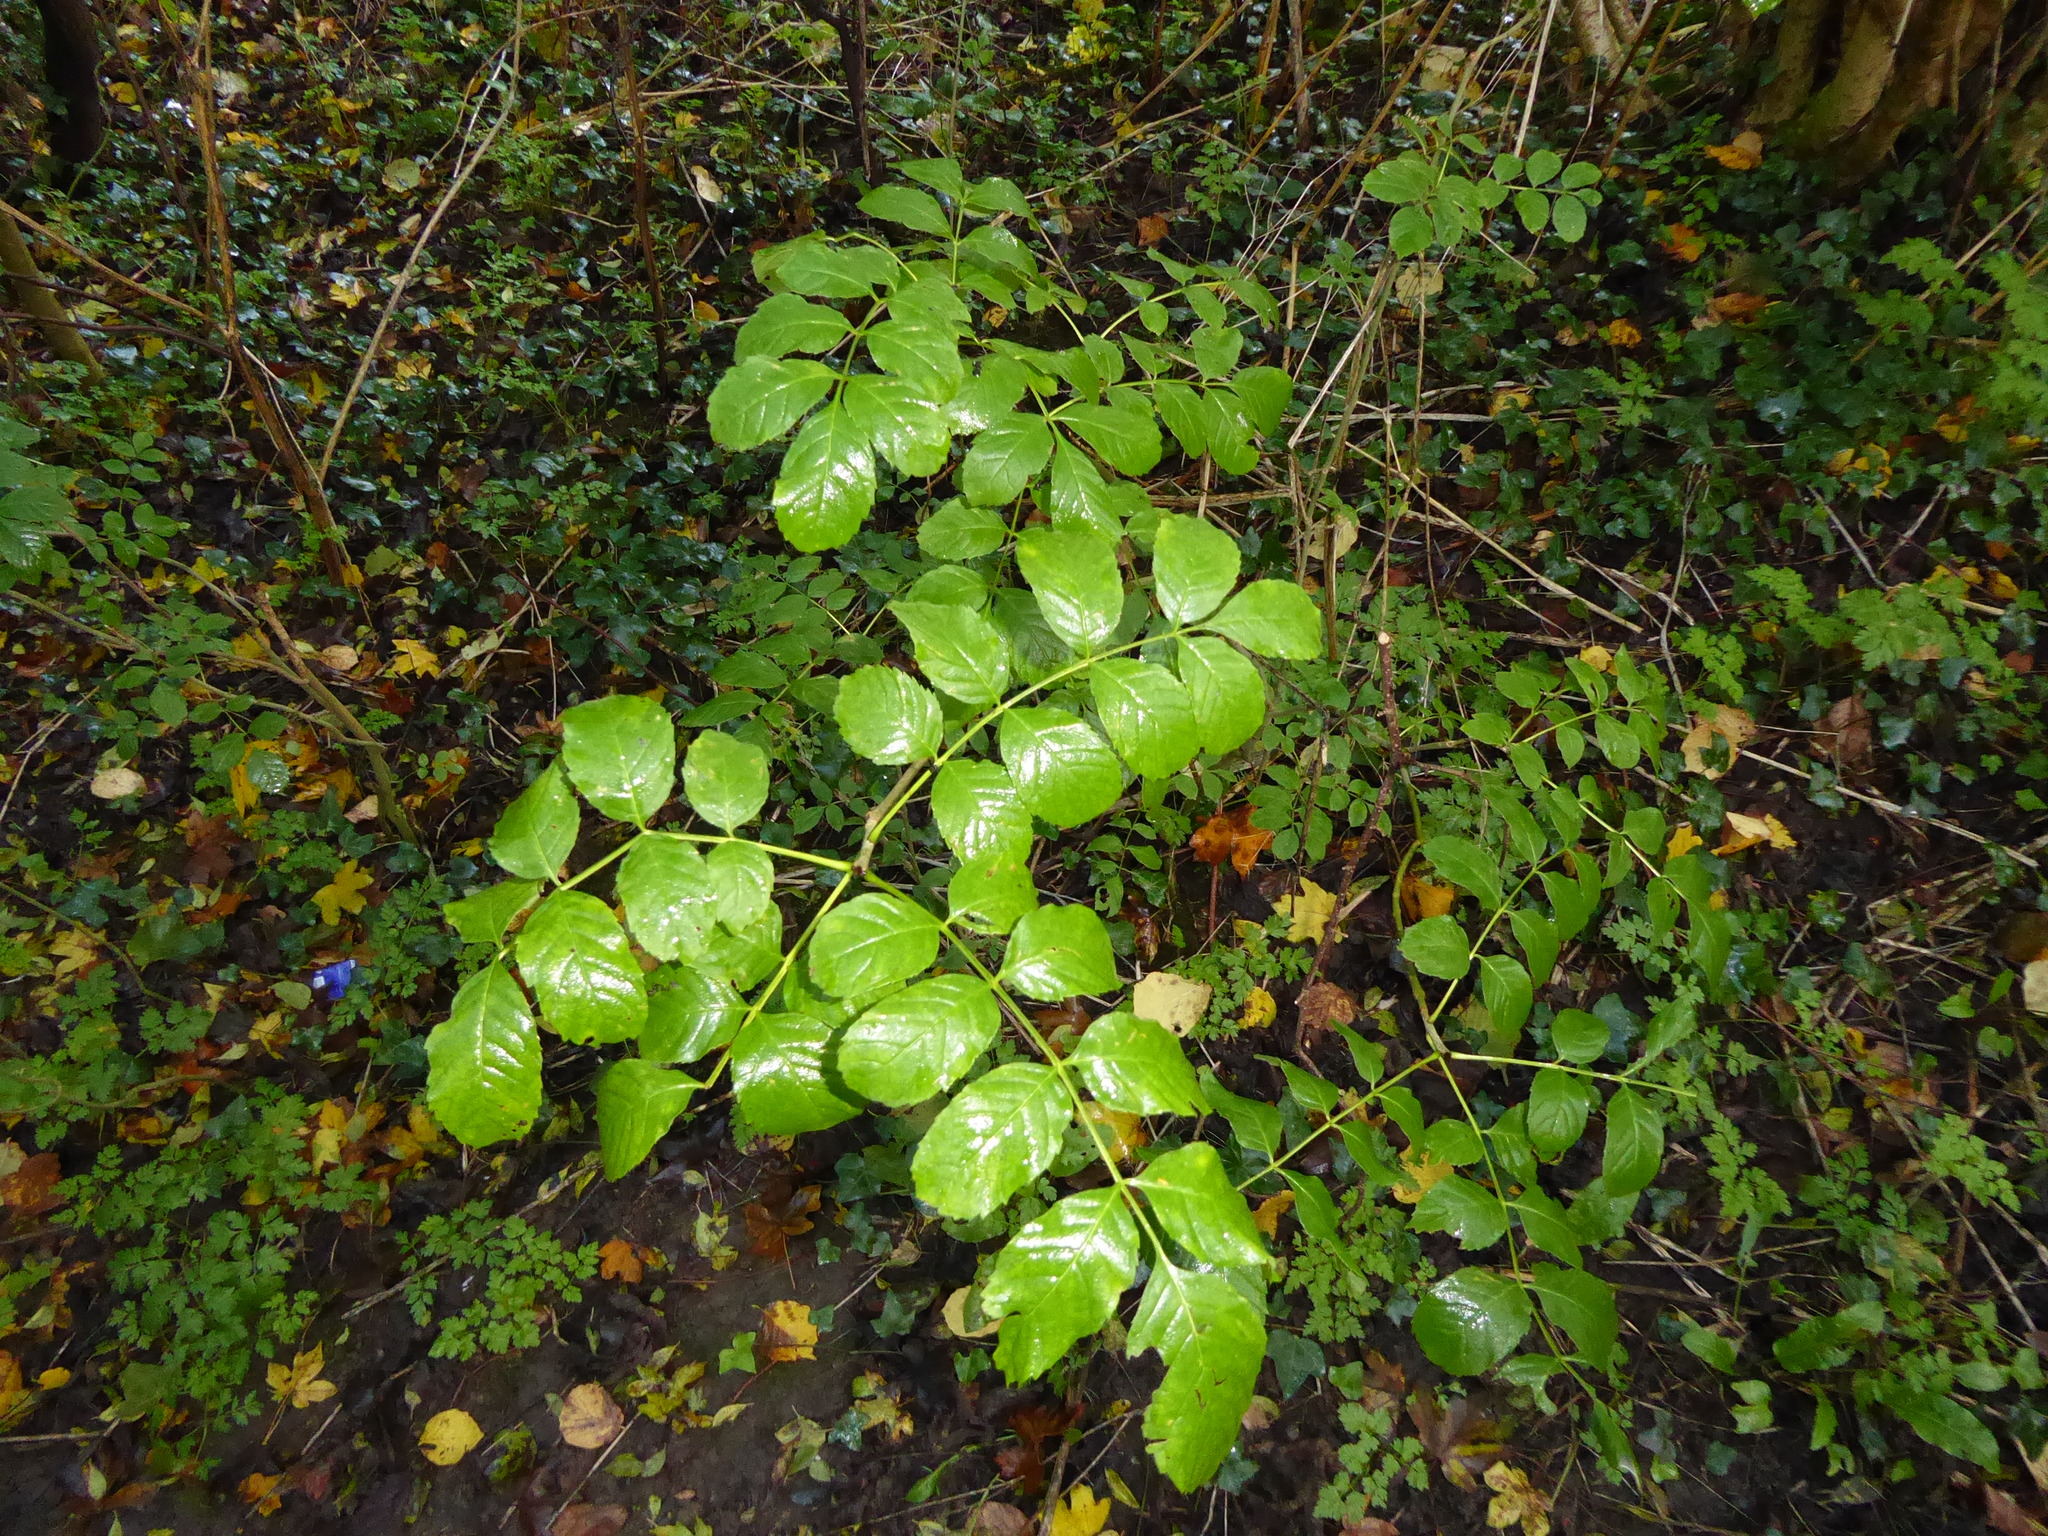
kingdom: Plantae
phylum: Tracheophyta
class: Magnoliopsida
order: Lamiales
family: Oleaceae
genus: Fraxinus
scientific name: Fraxinus excelsior
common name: European ash
